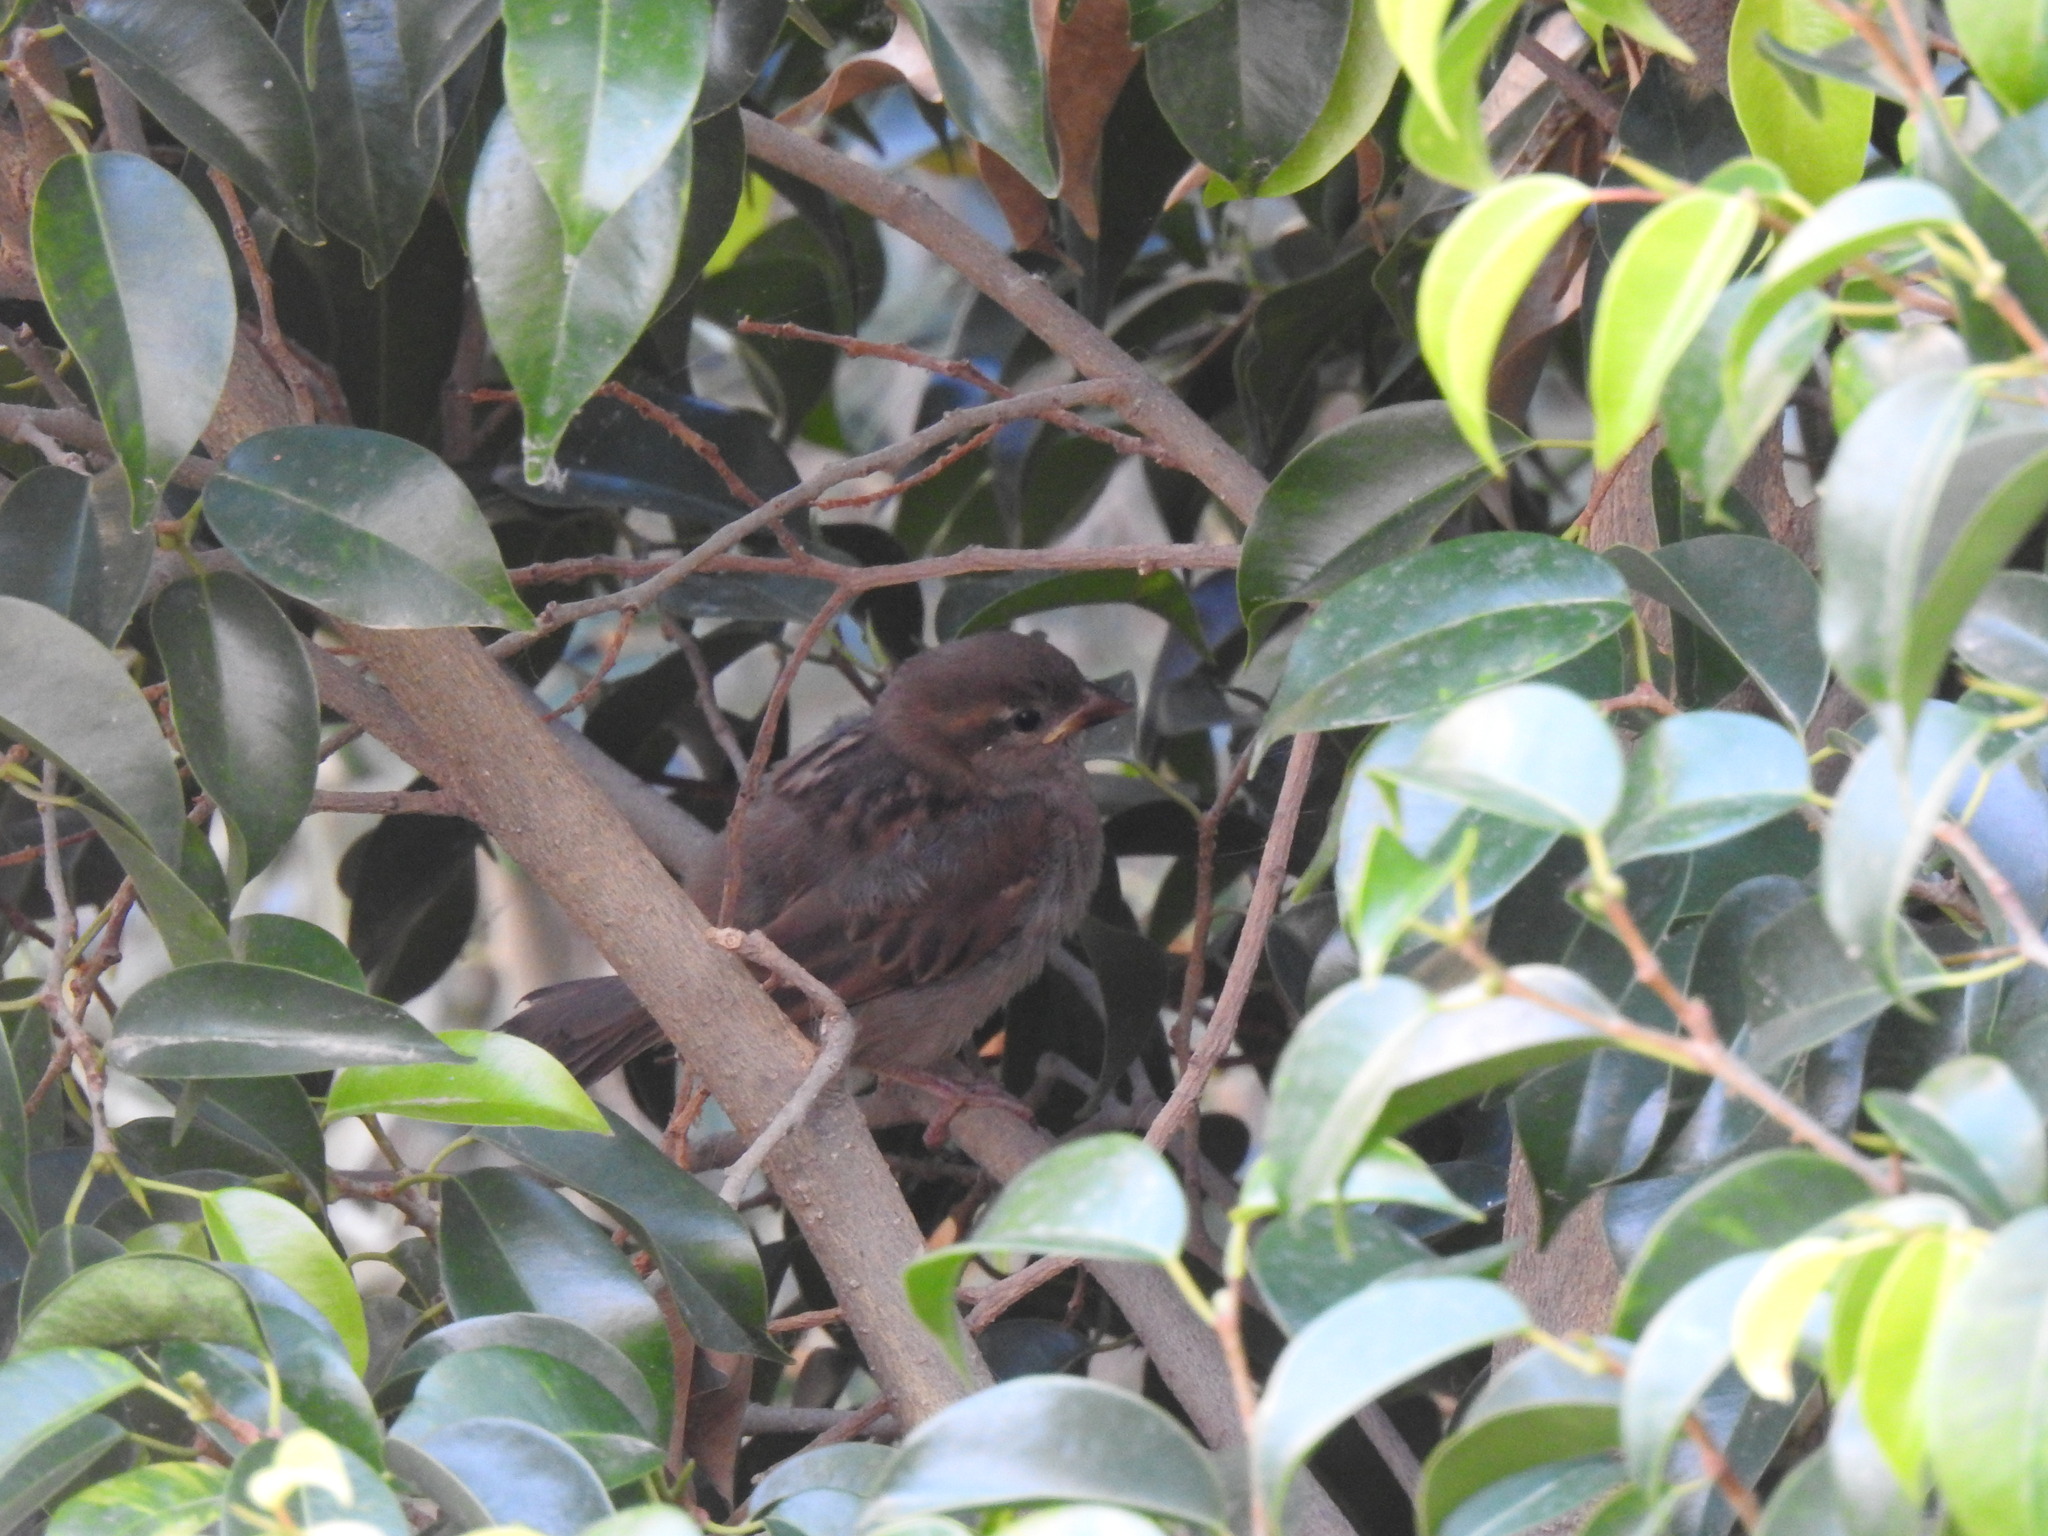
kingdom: Animalia
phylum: Chordata
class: Aves
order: Passeriformes
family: Passeridae
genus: Passer
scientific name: Passer domesticus
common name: House sparrow
